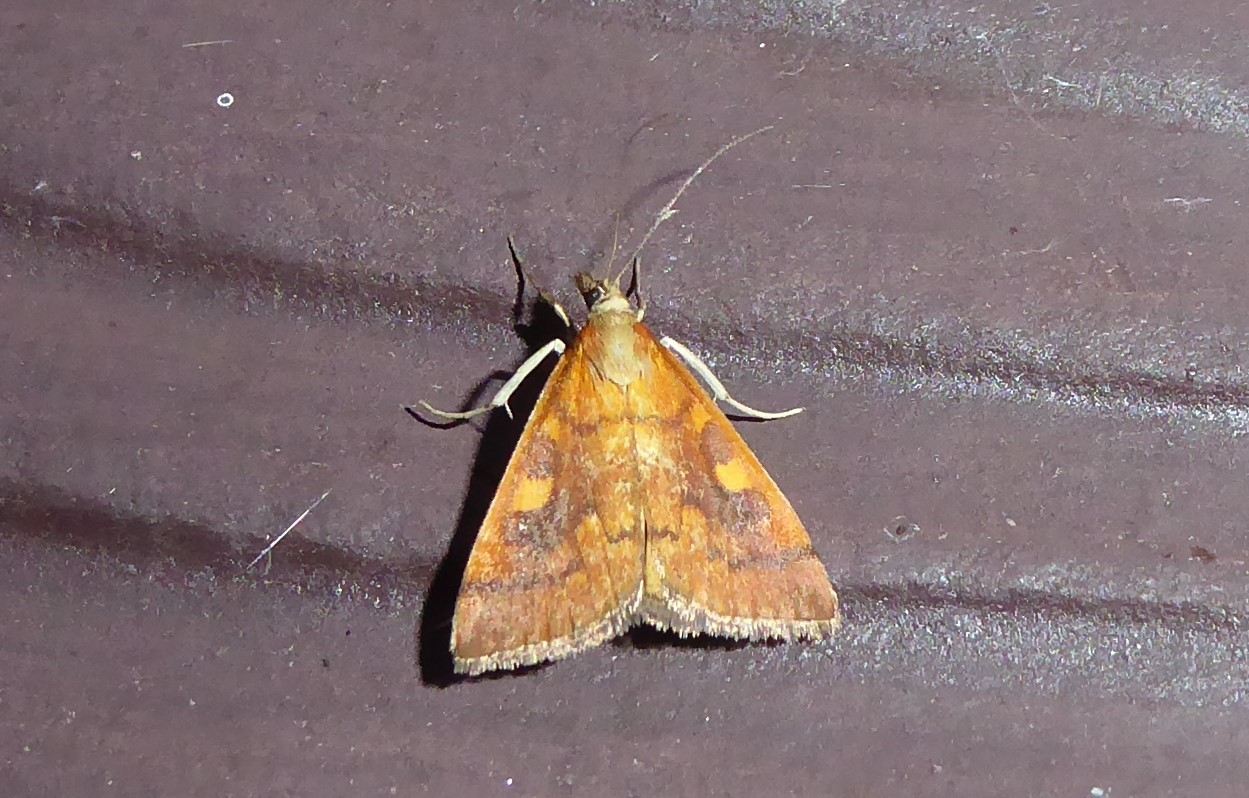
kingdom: Animalia
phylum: Arthropoda
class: Insecta
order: Lepidoptera
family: Crambidae
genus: Udea
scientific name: Udea Mnesictena flavidalis
